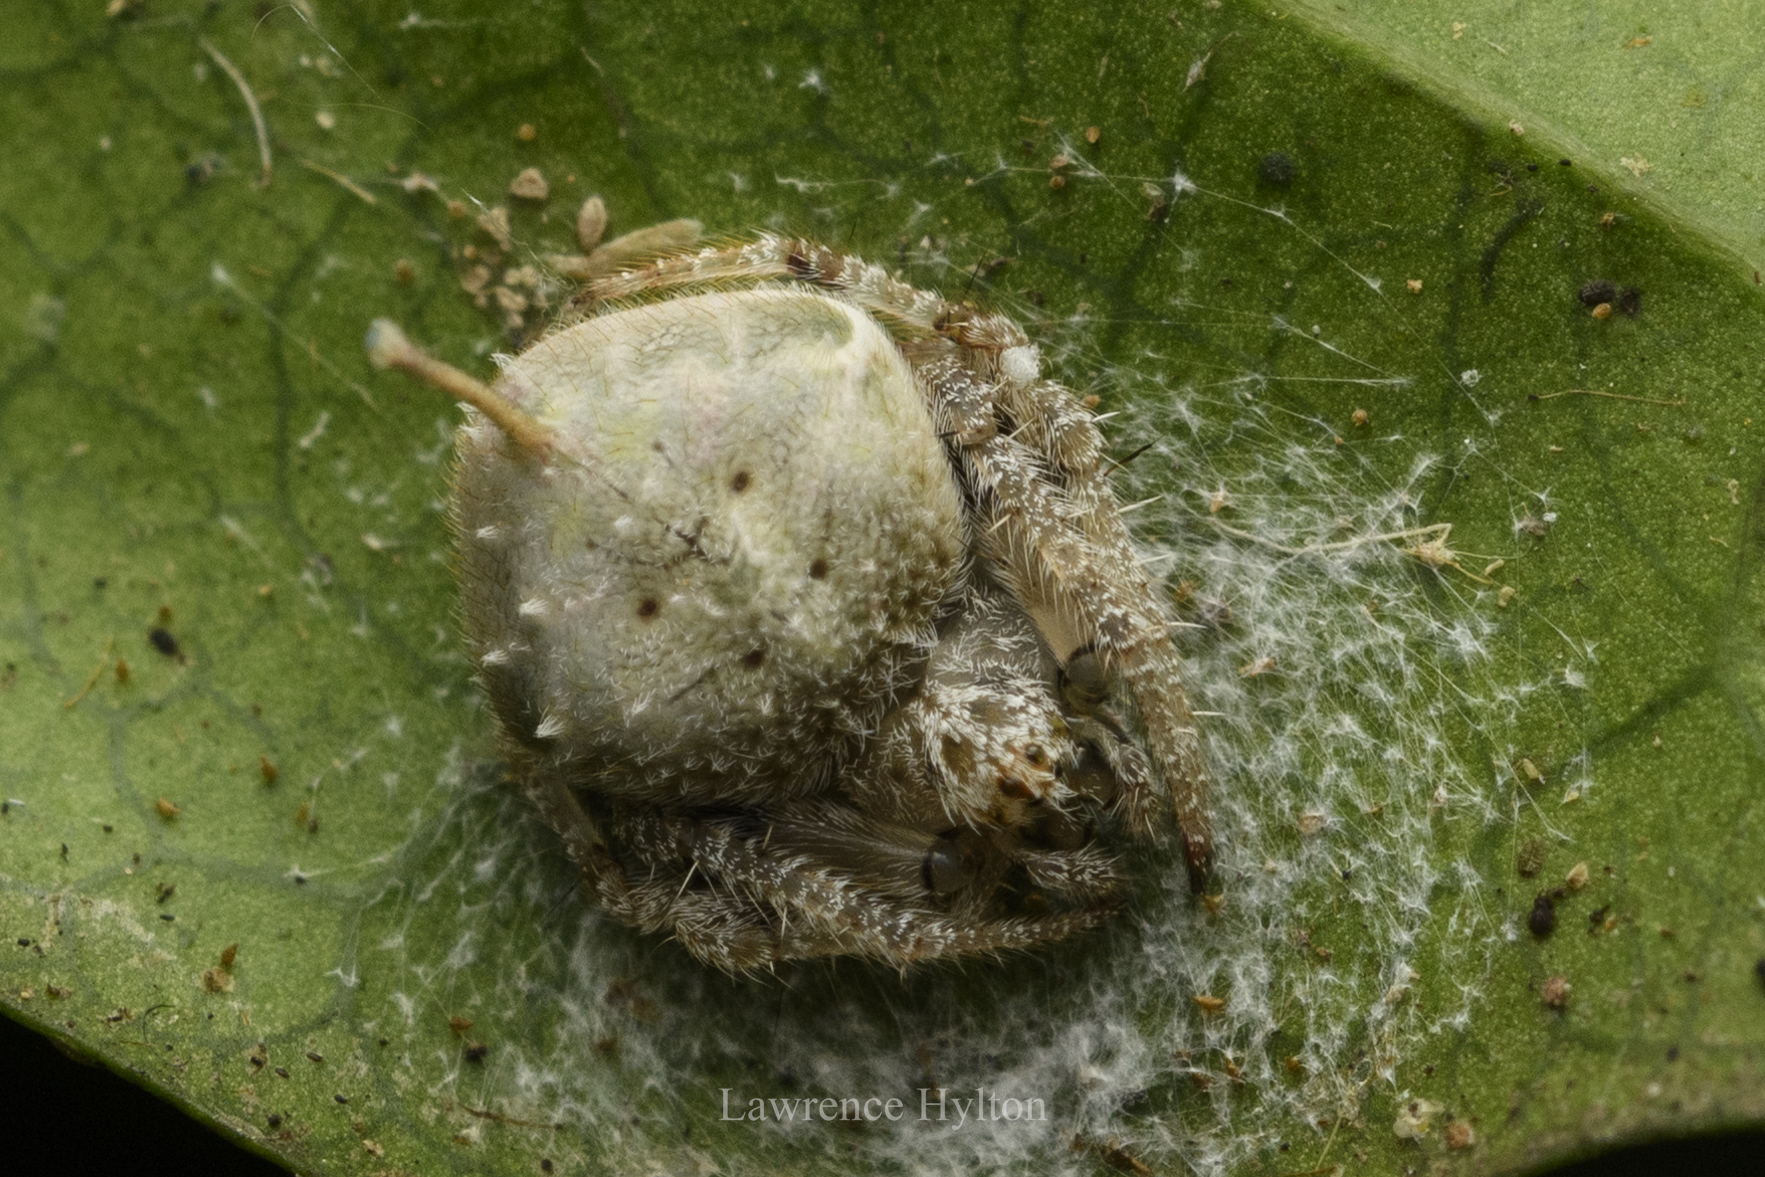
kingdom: Animalia
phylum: Arthropoda
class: Arachnida
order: Araneae
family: Araneidae
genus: Eriovixia
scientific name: Eriovixia laglaizei
